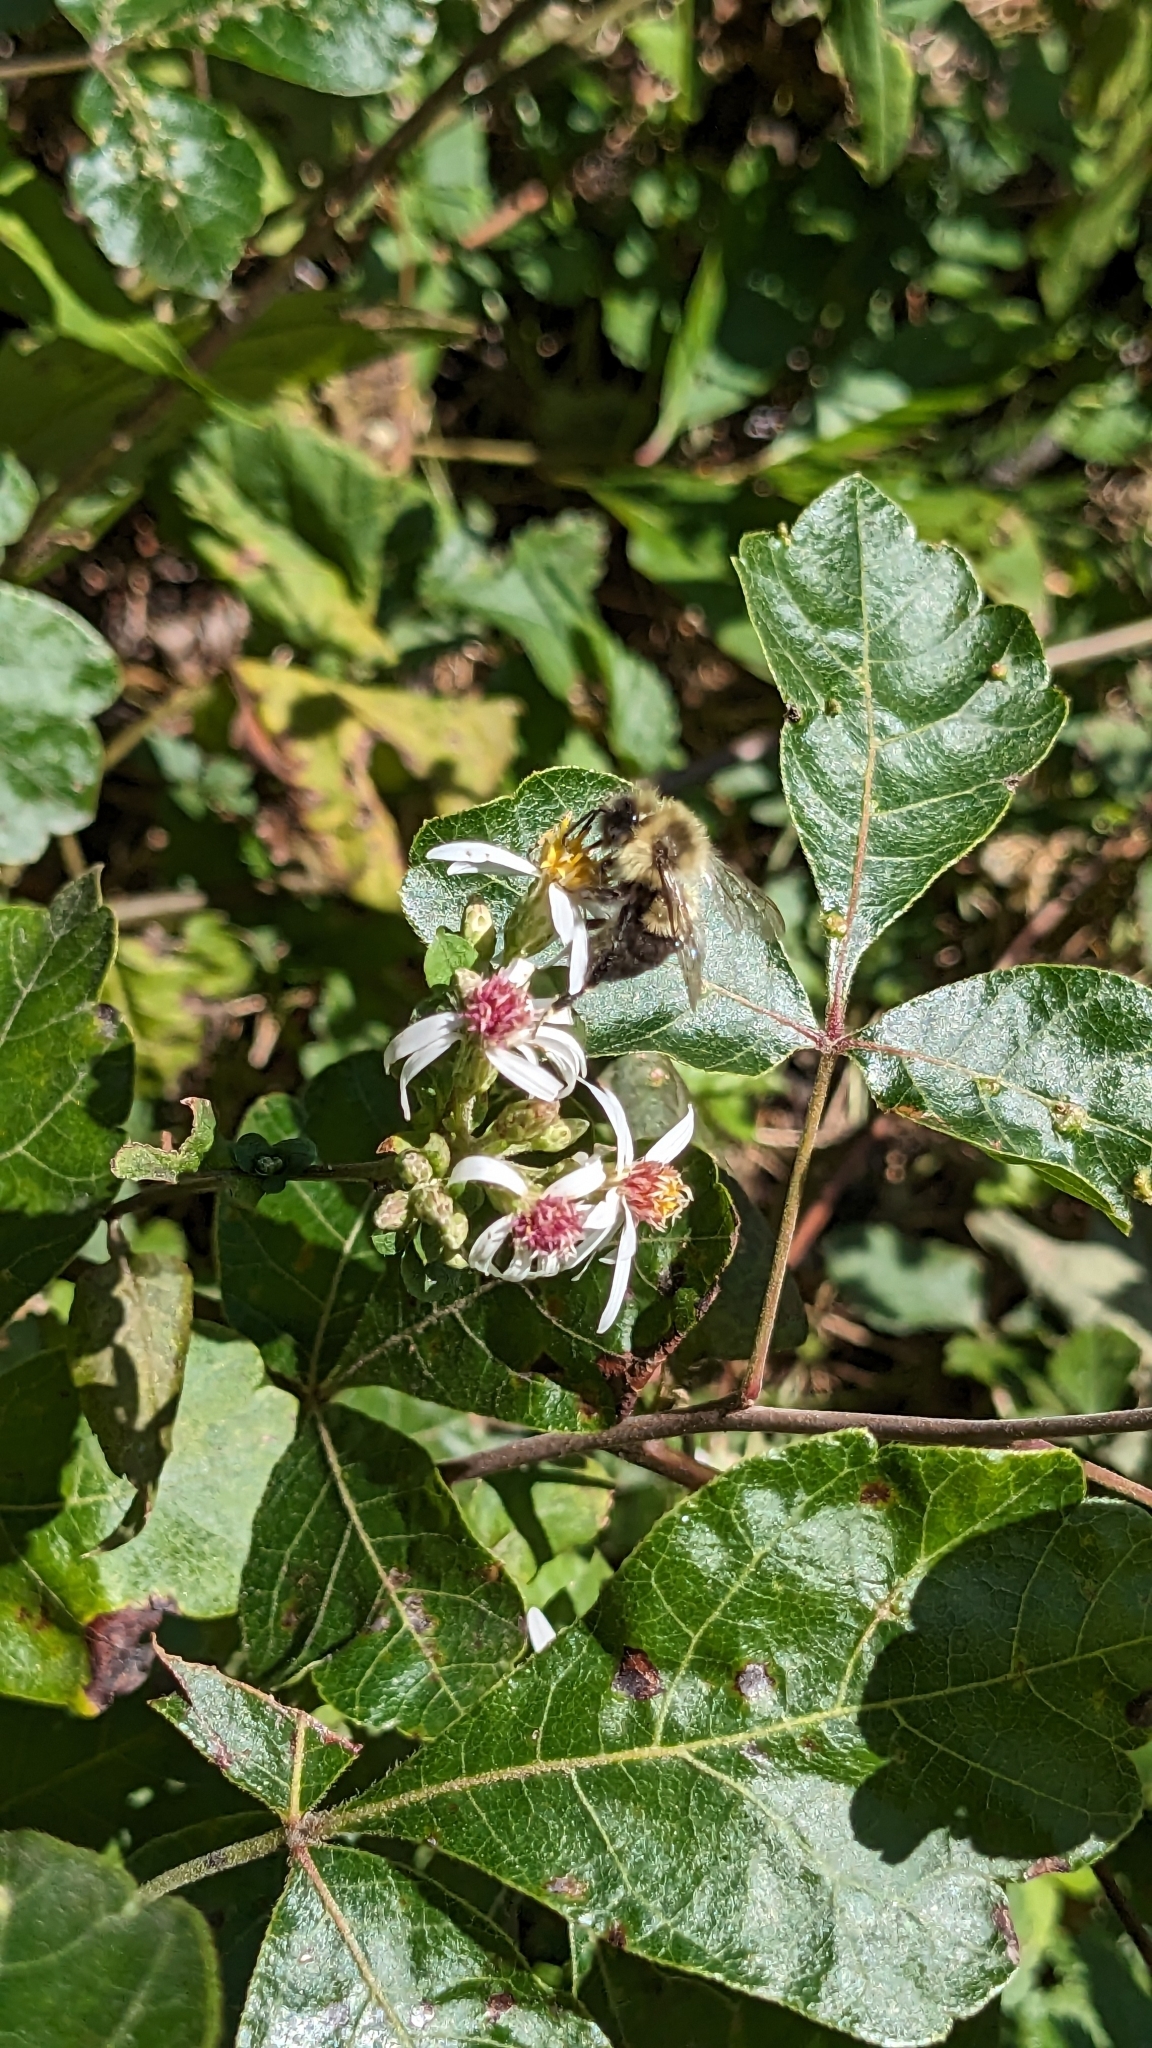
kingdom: Animalia
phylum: Arthropoda
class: Insecta
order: Hymenoptera
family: Apidae
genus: Bombus
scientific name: Bombus impatiens
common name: Common eastern bumble bee
